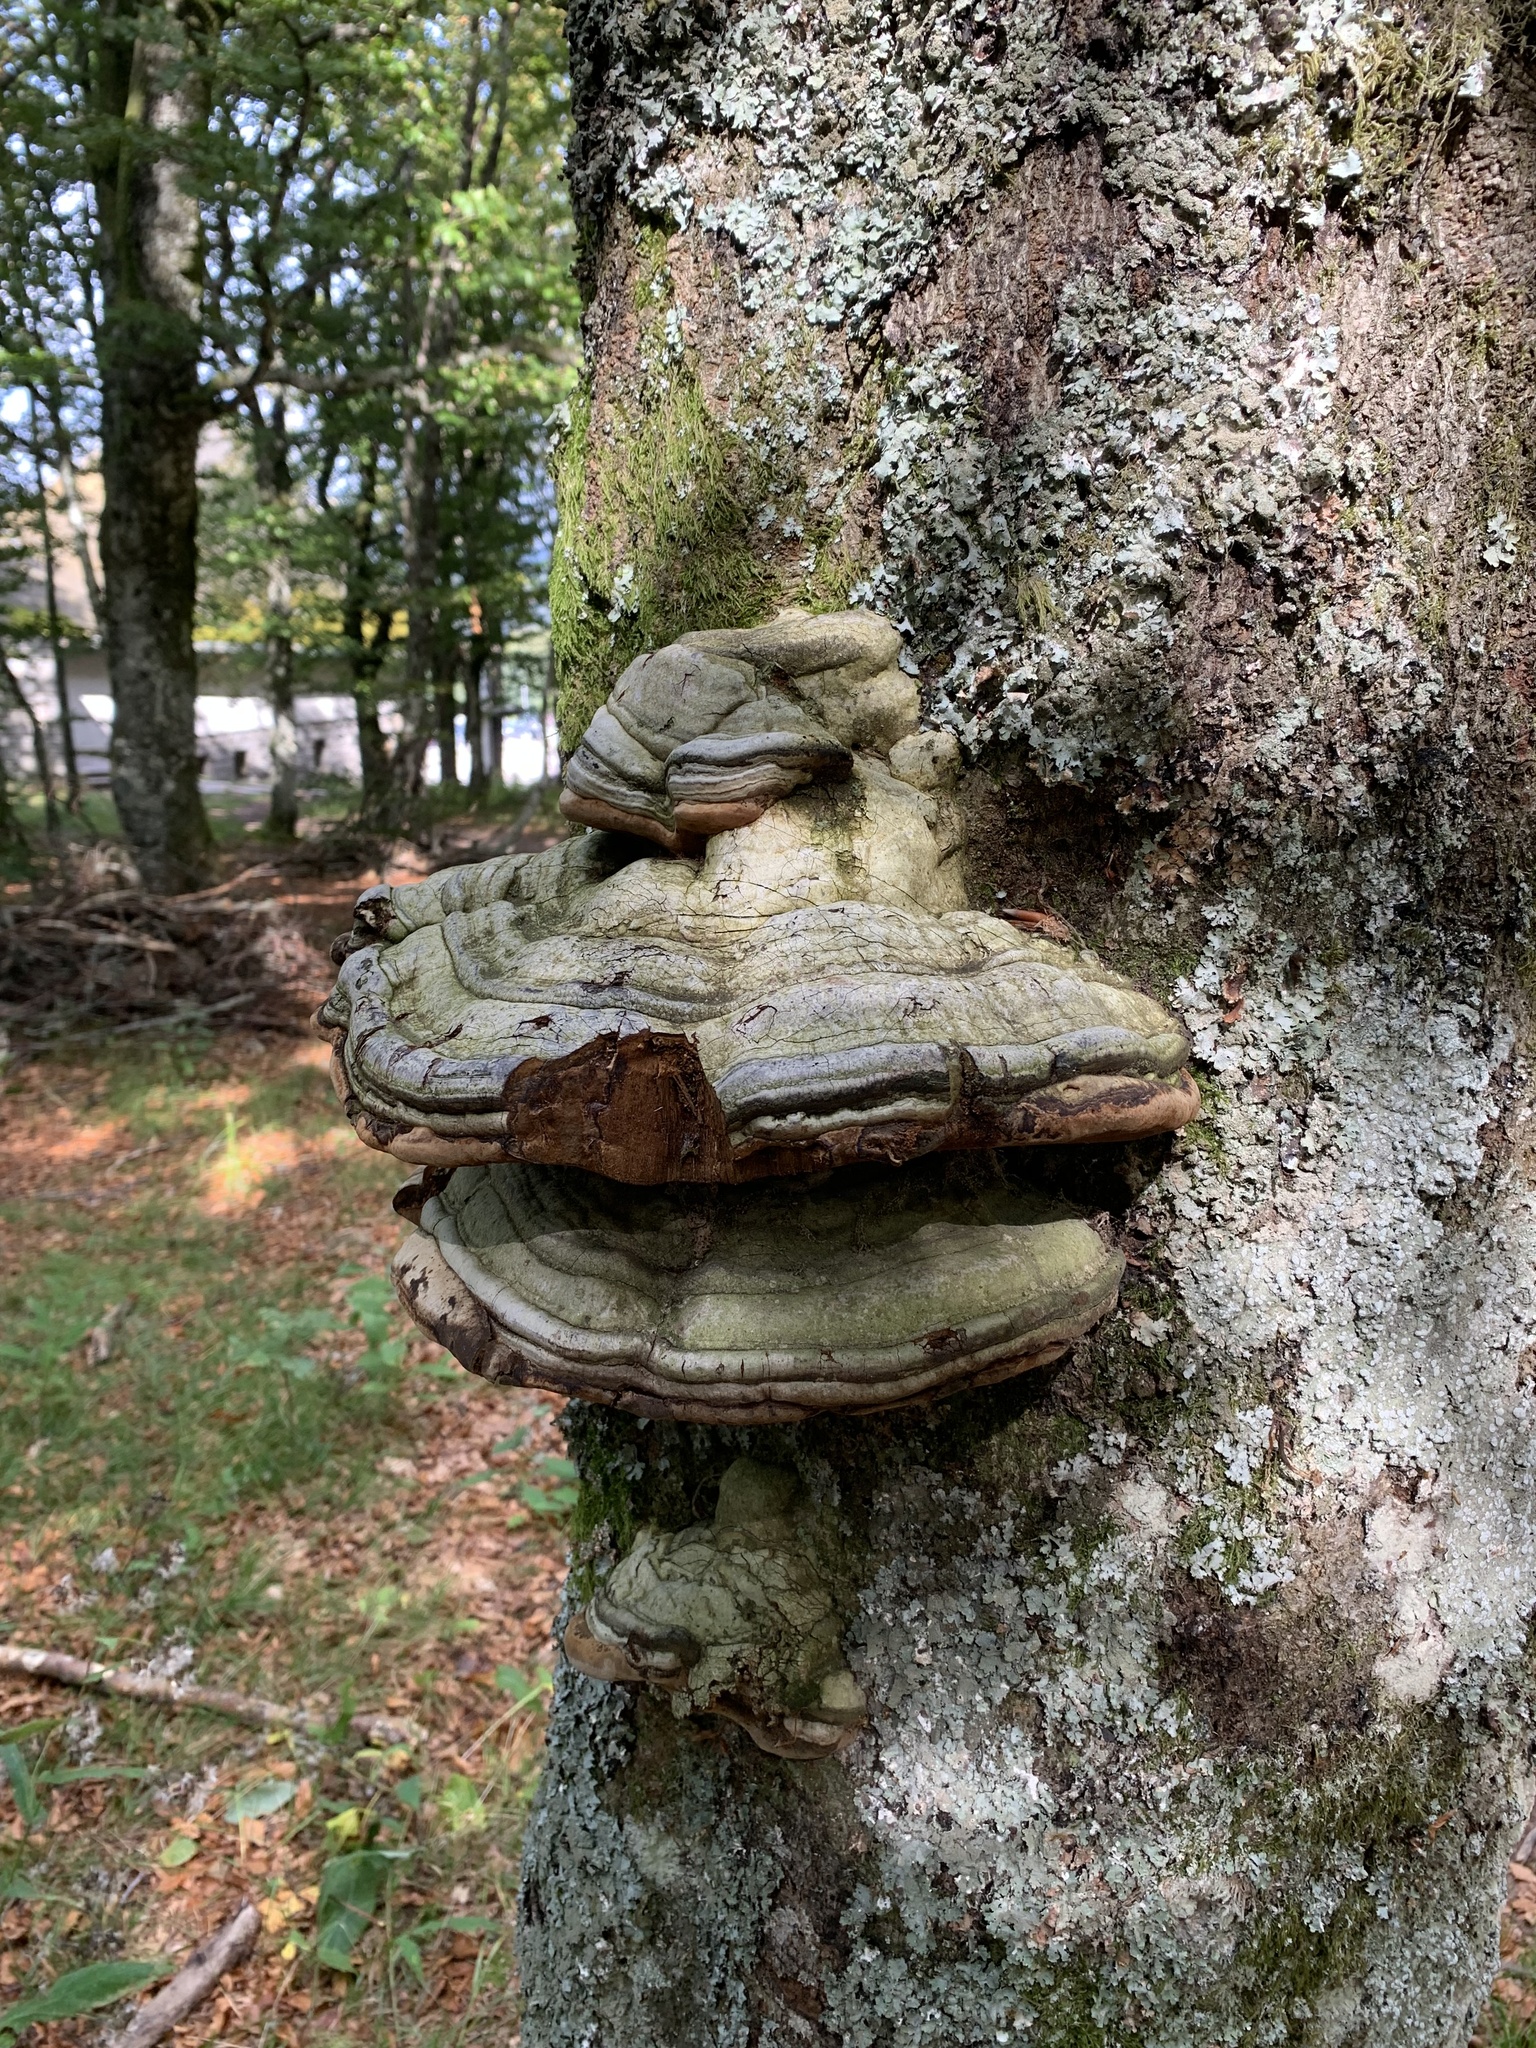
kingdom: Fungi
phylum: Basidiomycota
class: Agaricomycetes
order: Polyporales
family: Polyporaceae
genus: Fomes
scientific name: Fomes fomentarius
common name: Hoof fungus
